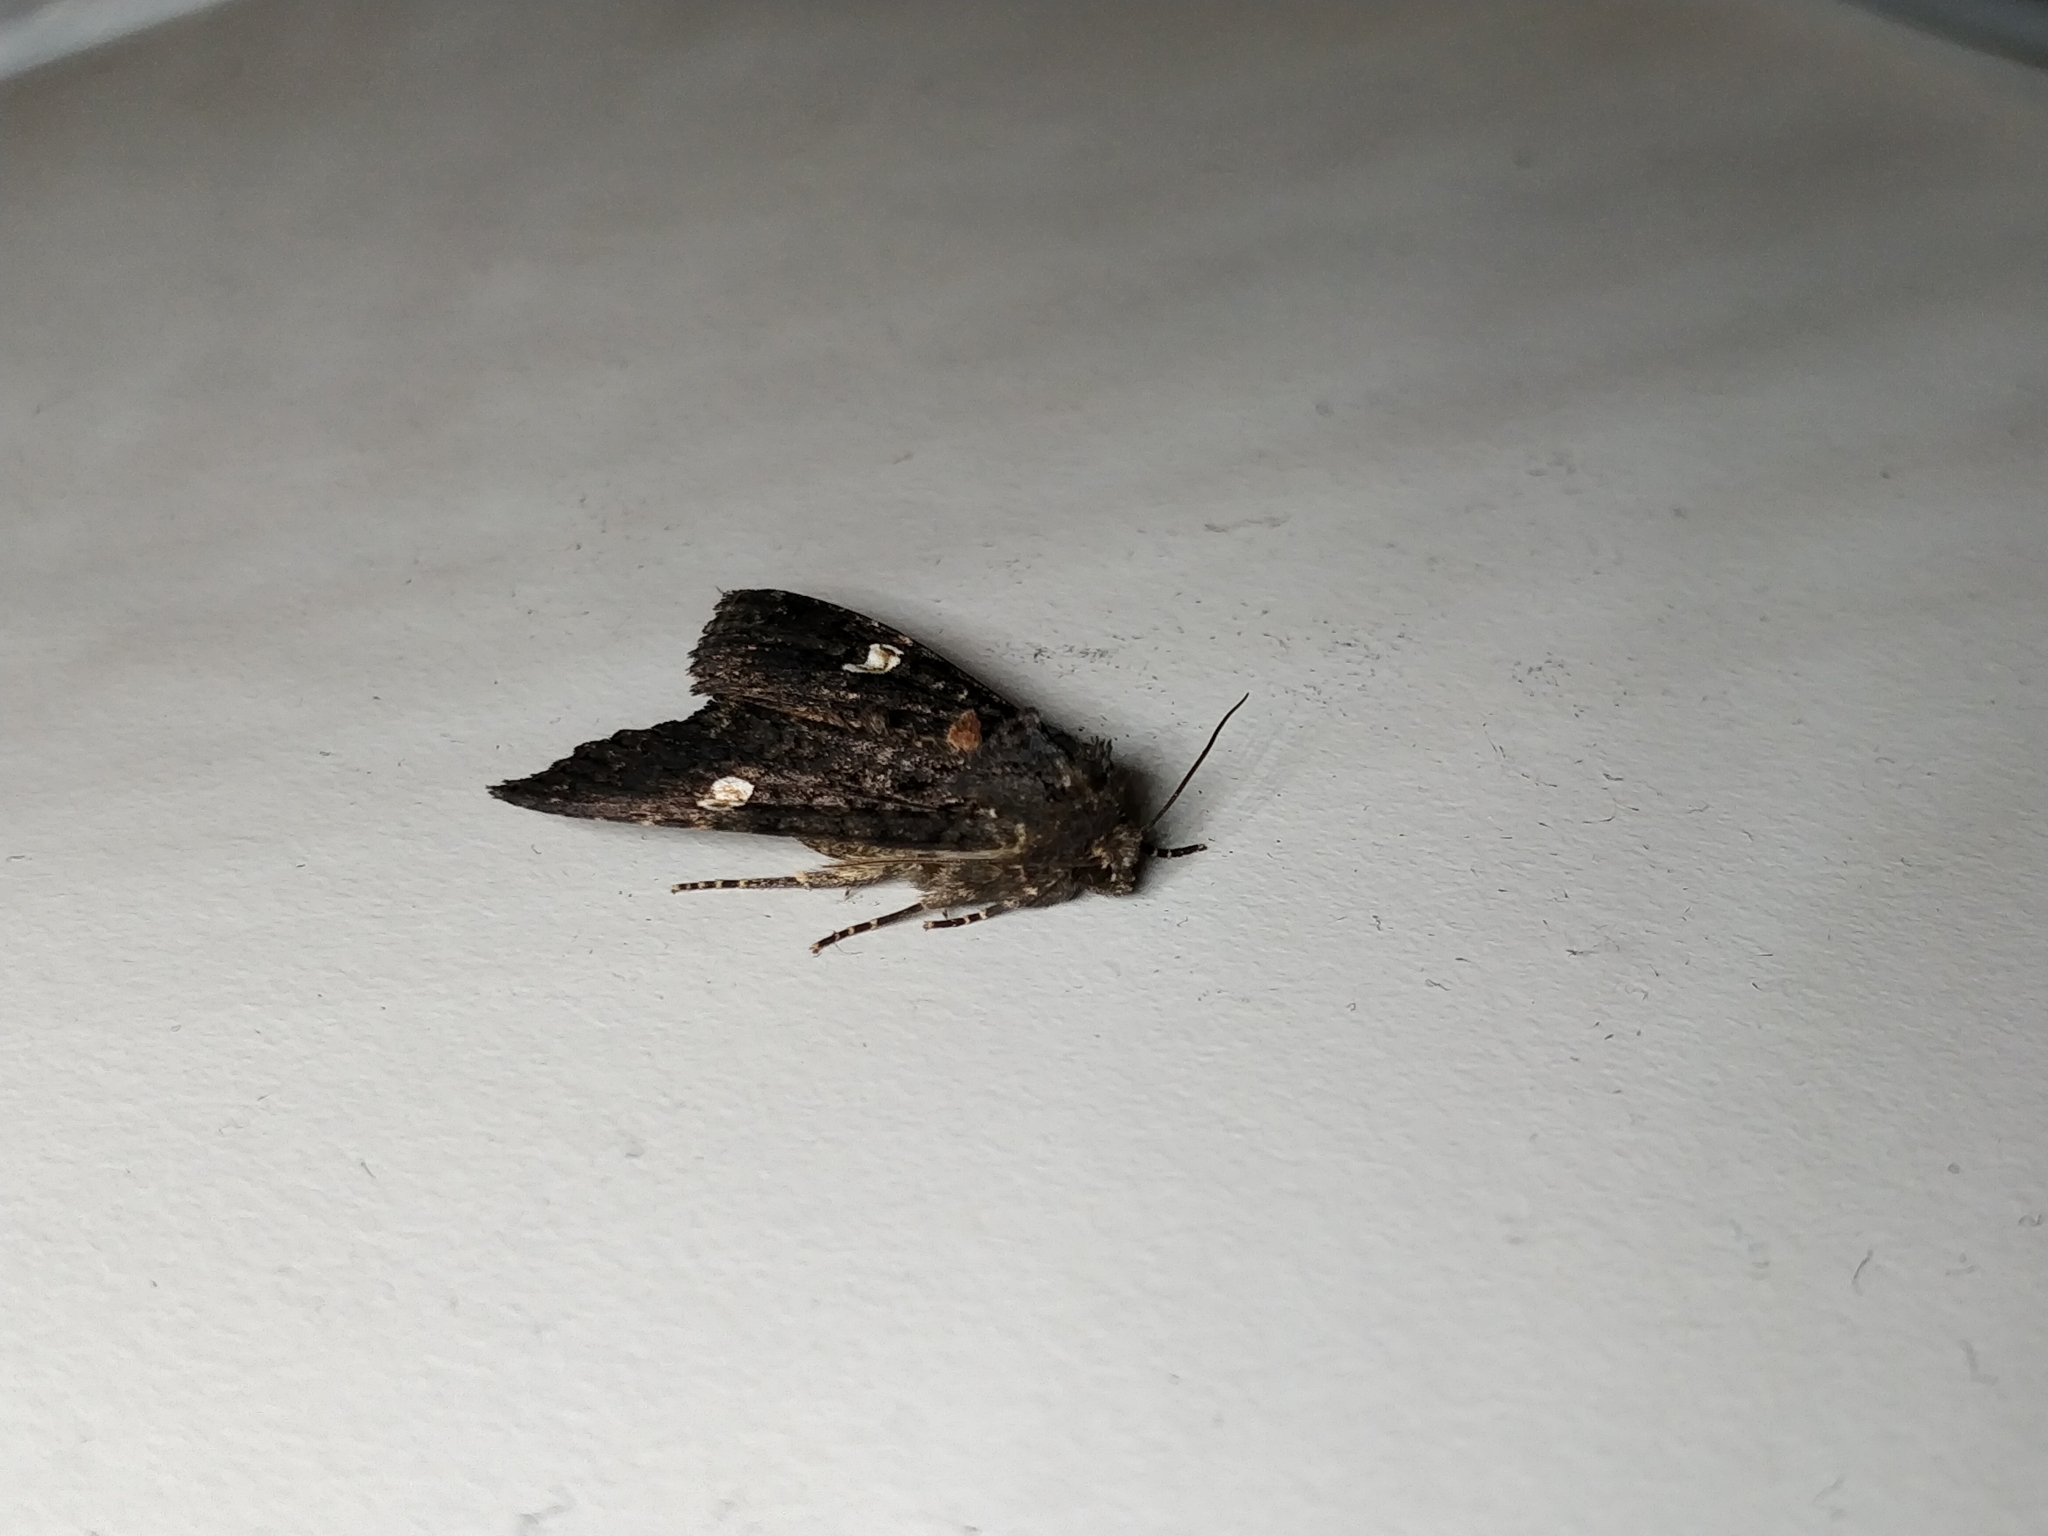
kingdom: Animalia
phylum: Arthropoda
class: Insecta
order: Lepidoptera
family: Noctuidae
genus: Melanchra
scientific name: Melanchra persicariae
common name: Dot moth
